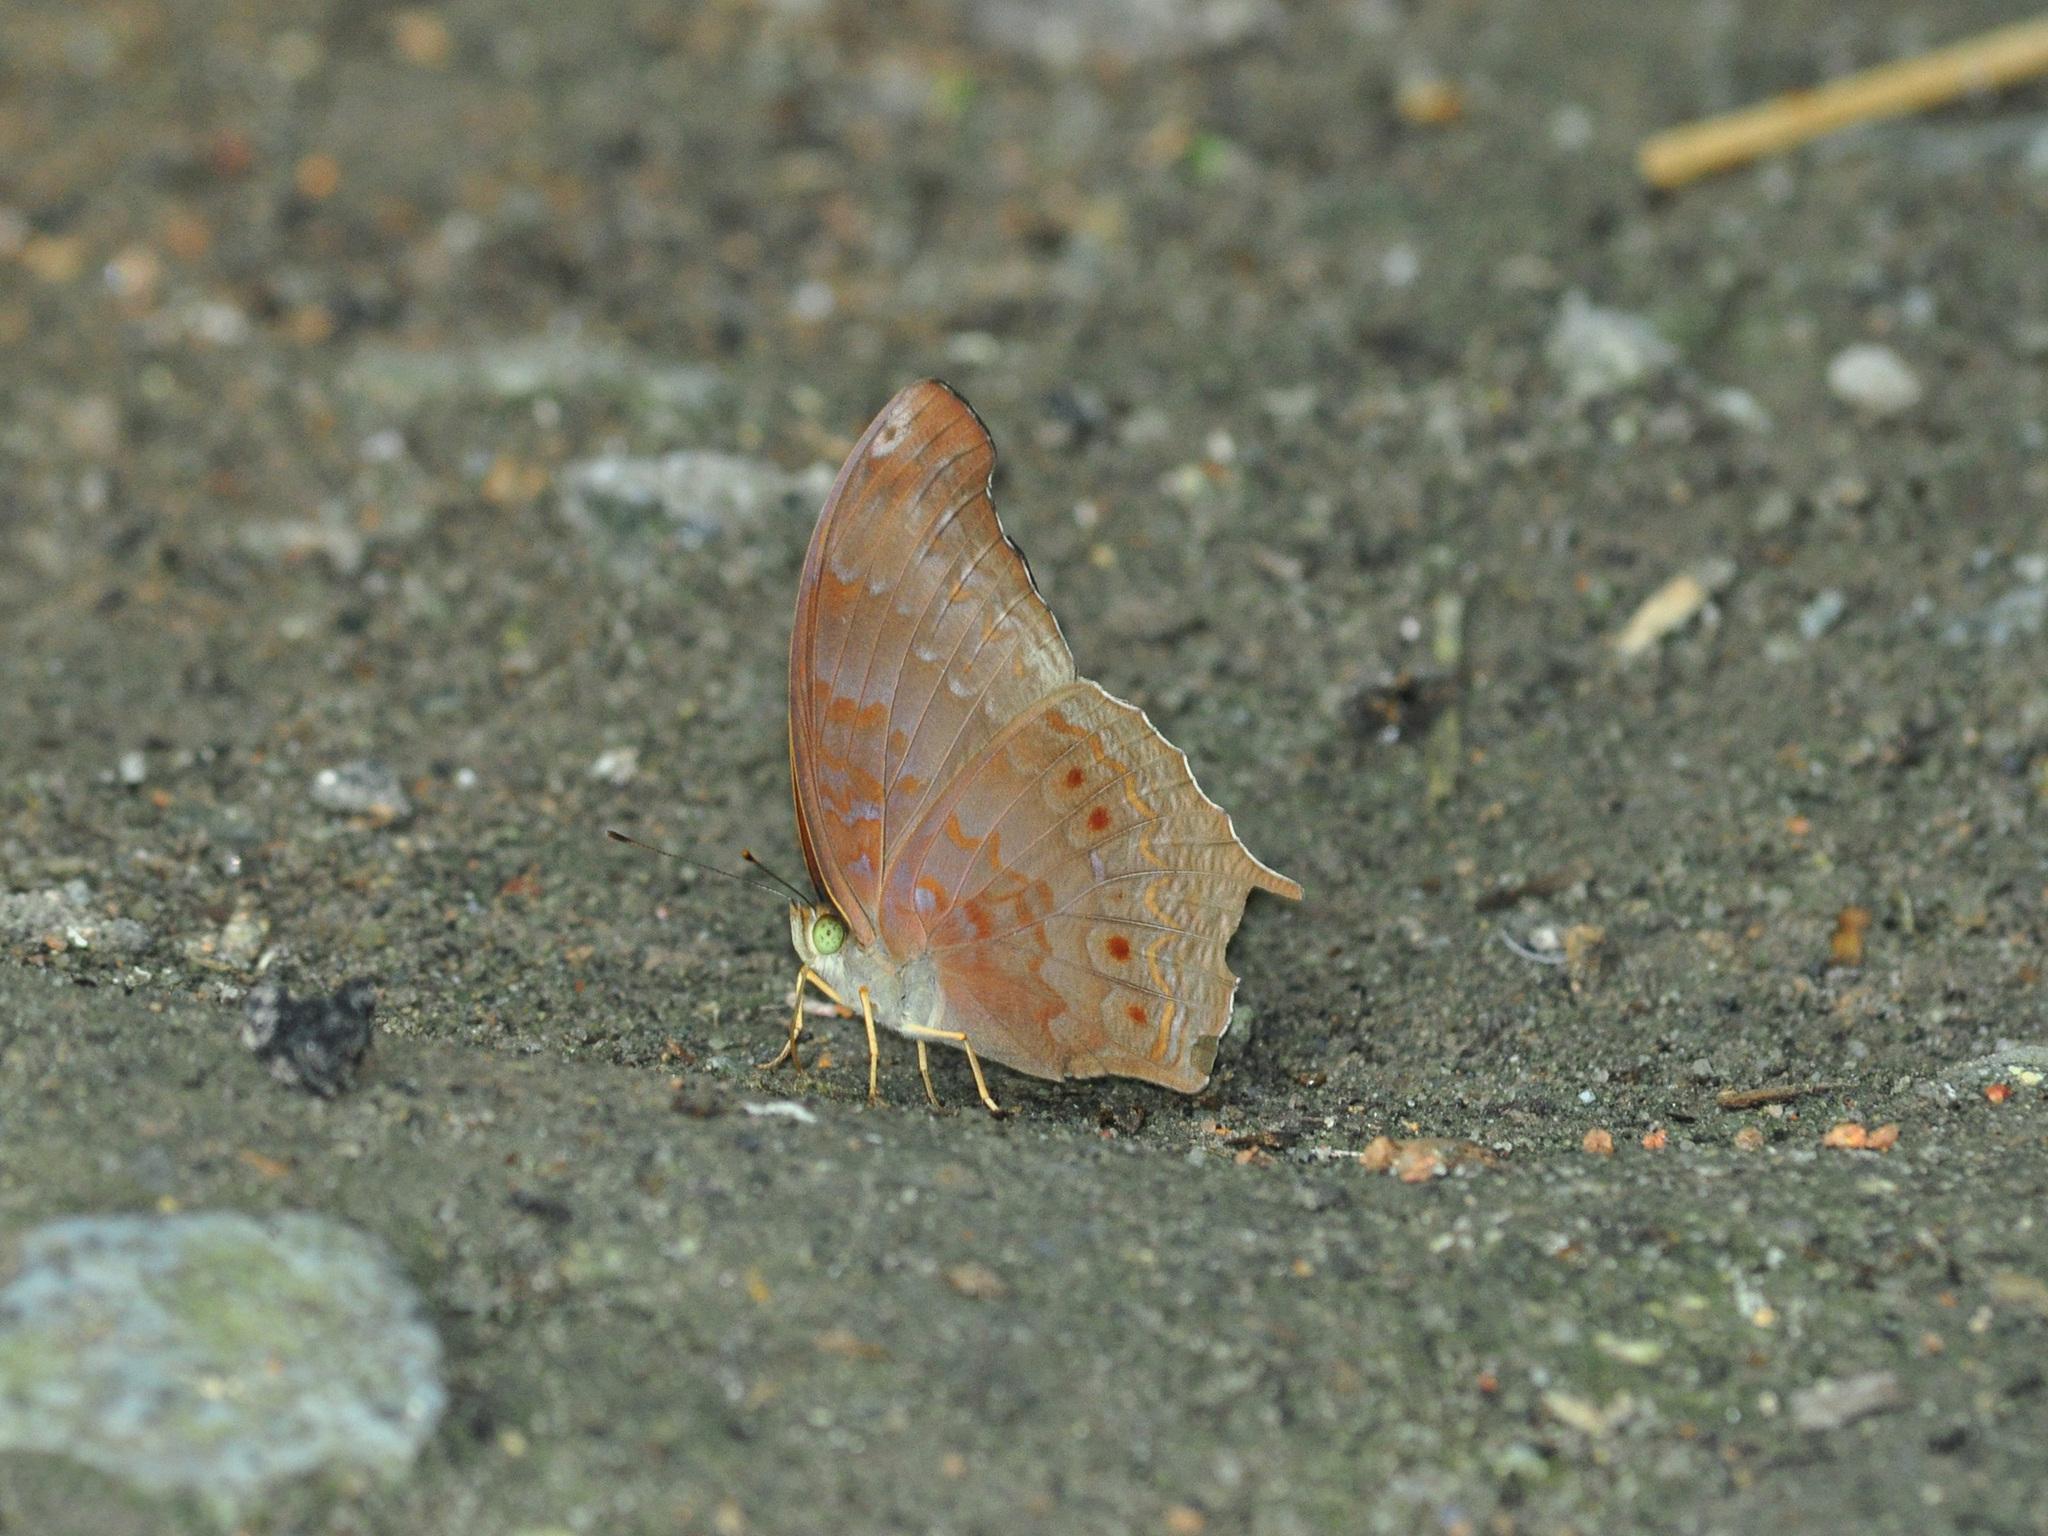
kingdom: Animalia
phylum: Arthropoda
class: Insecta
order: Lepidoptera
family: Nymphalidae
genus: Terinos
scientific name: Terinos atlita
